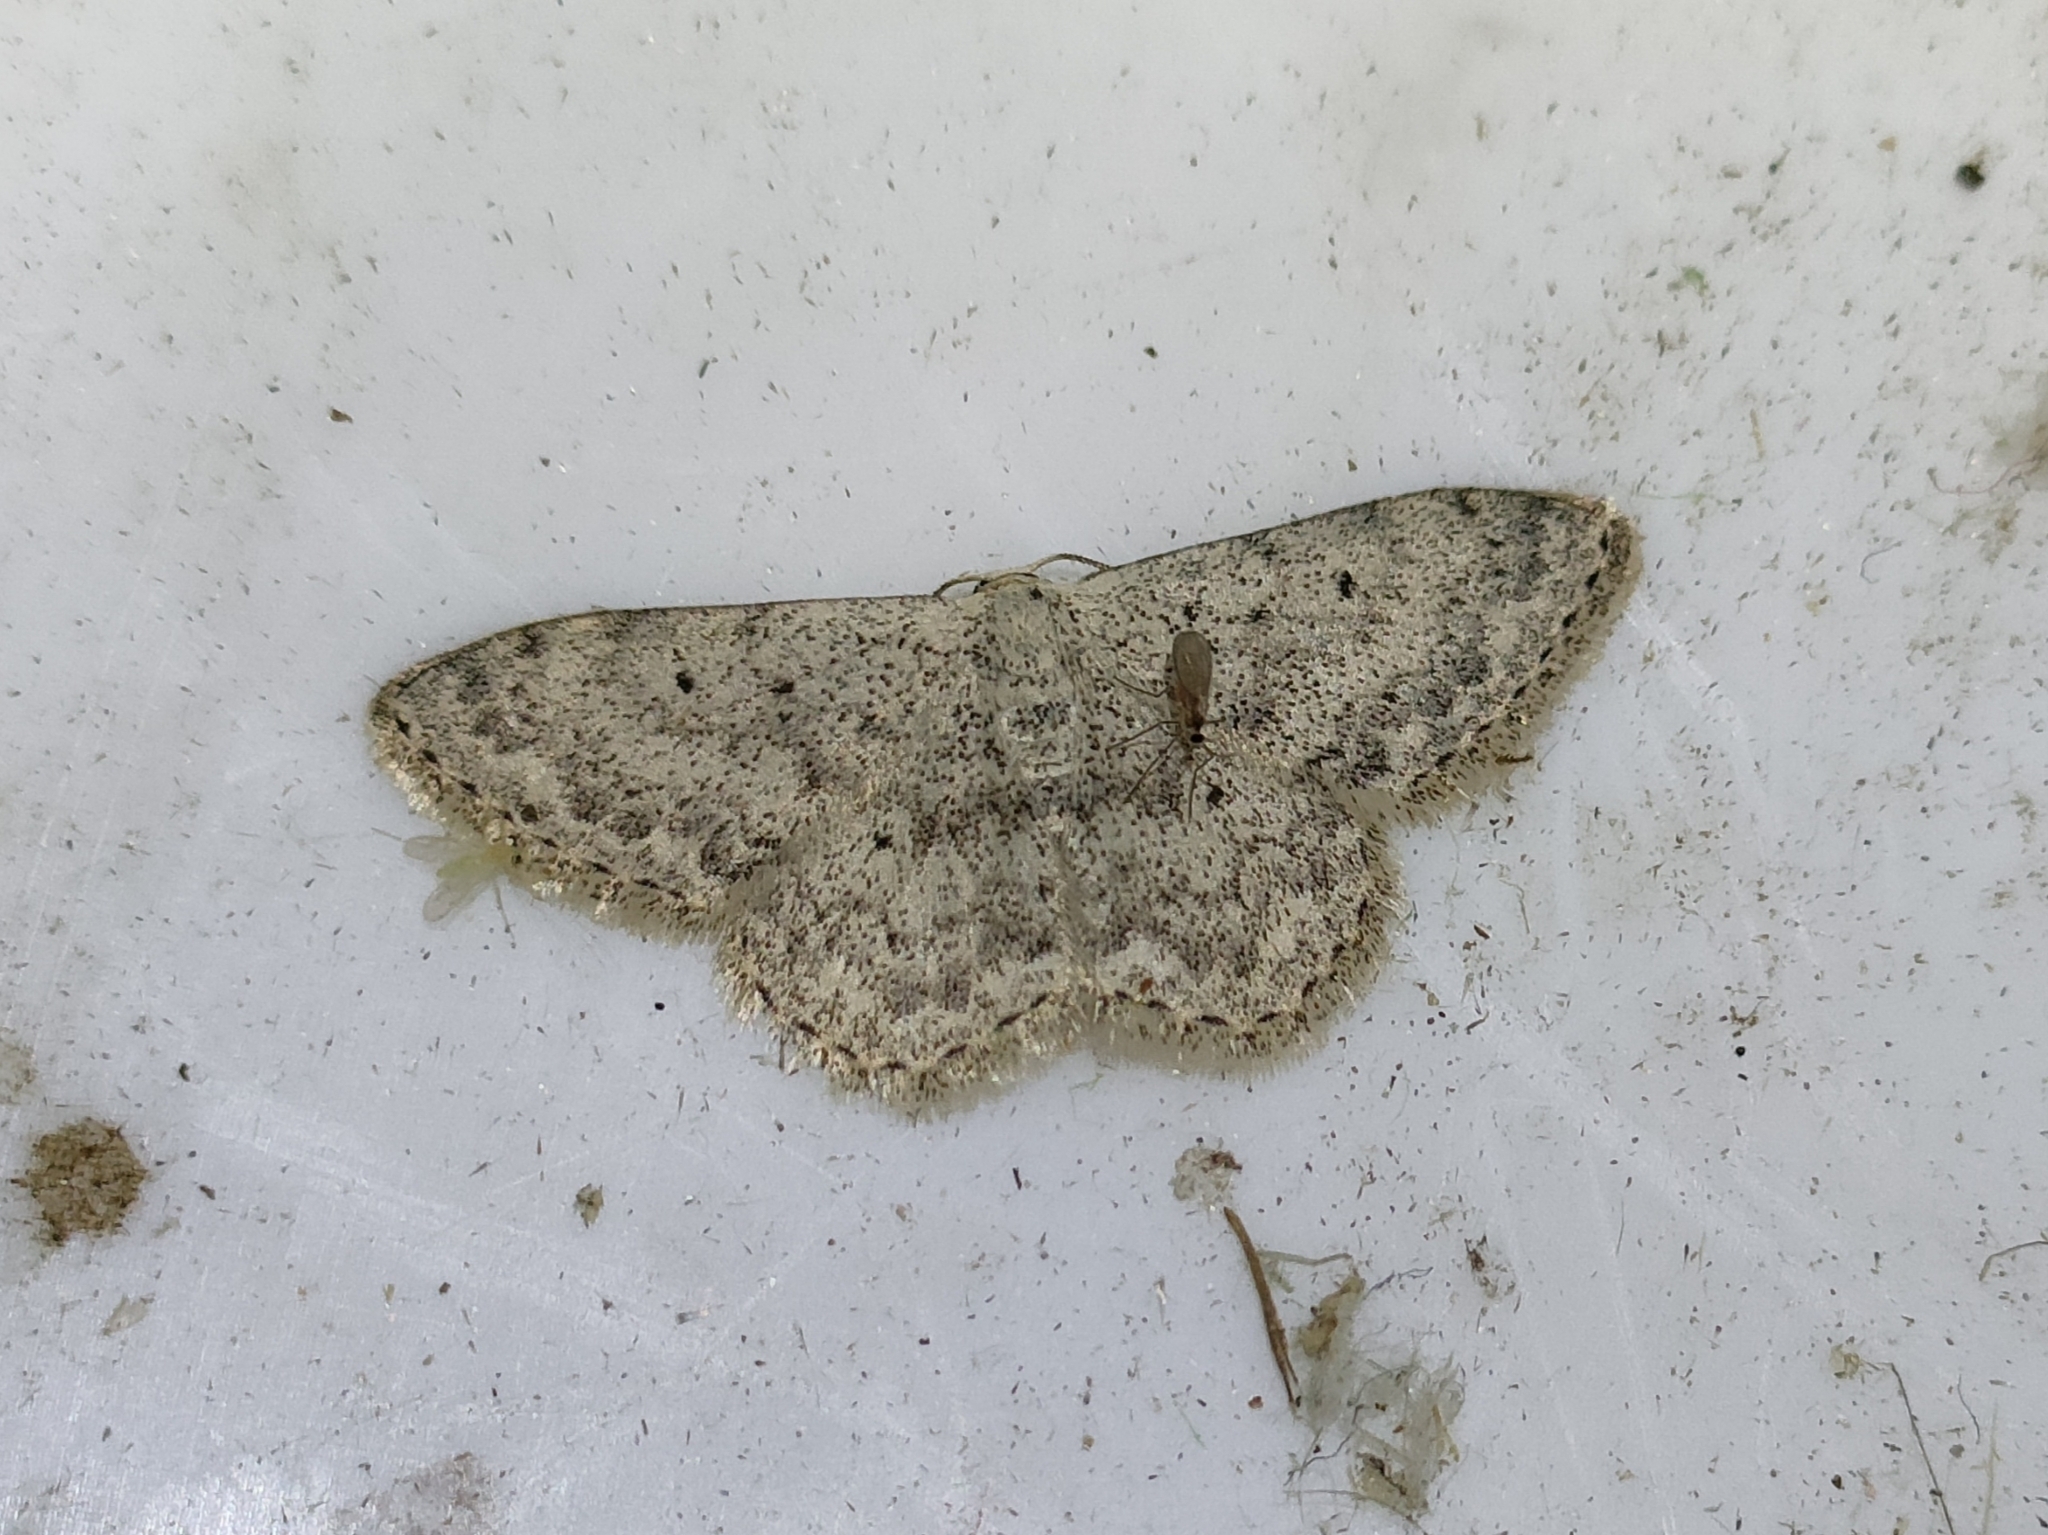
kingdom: Animalia
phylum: Arthropoda
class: Insecta
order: Lepidoptera
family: Geometridae
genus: Scopula
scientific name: Scopula marginepunctata
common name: Mullein wave
